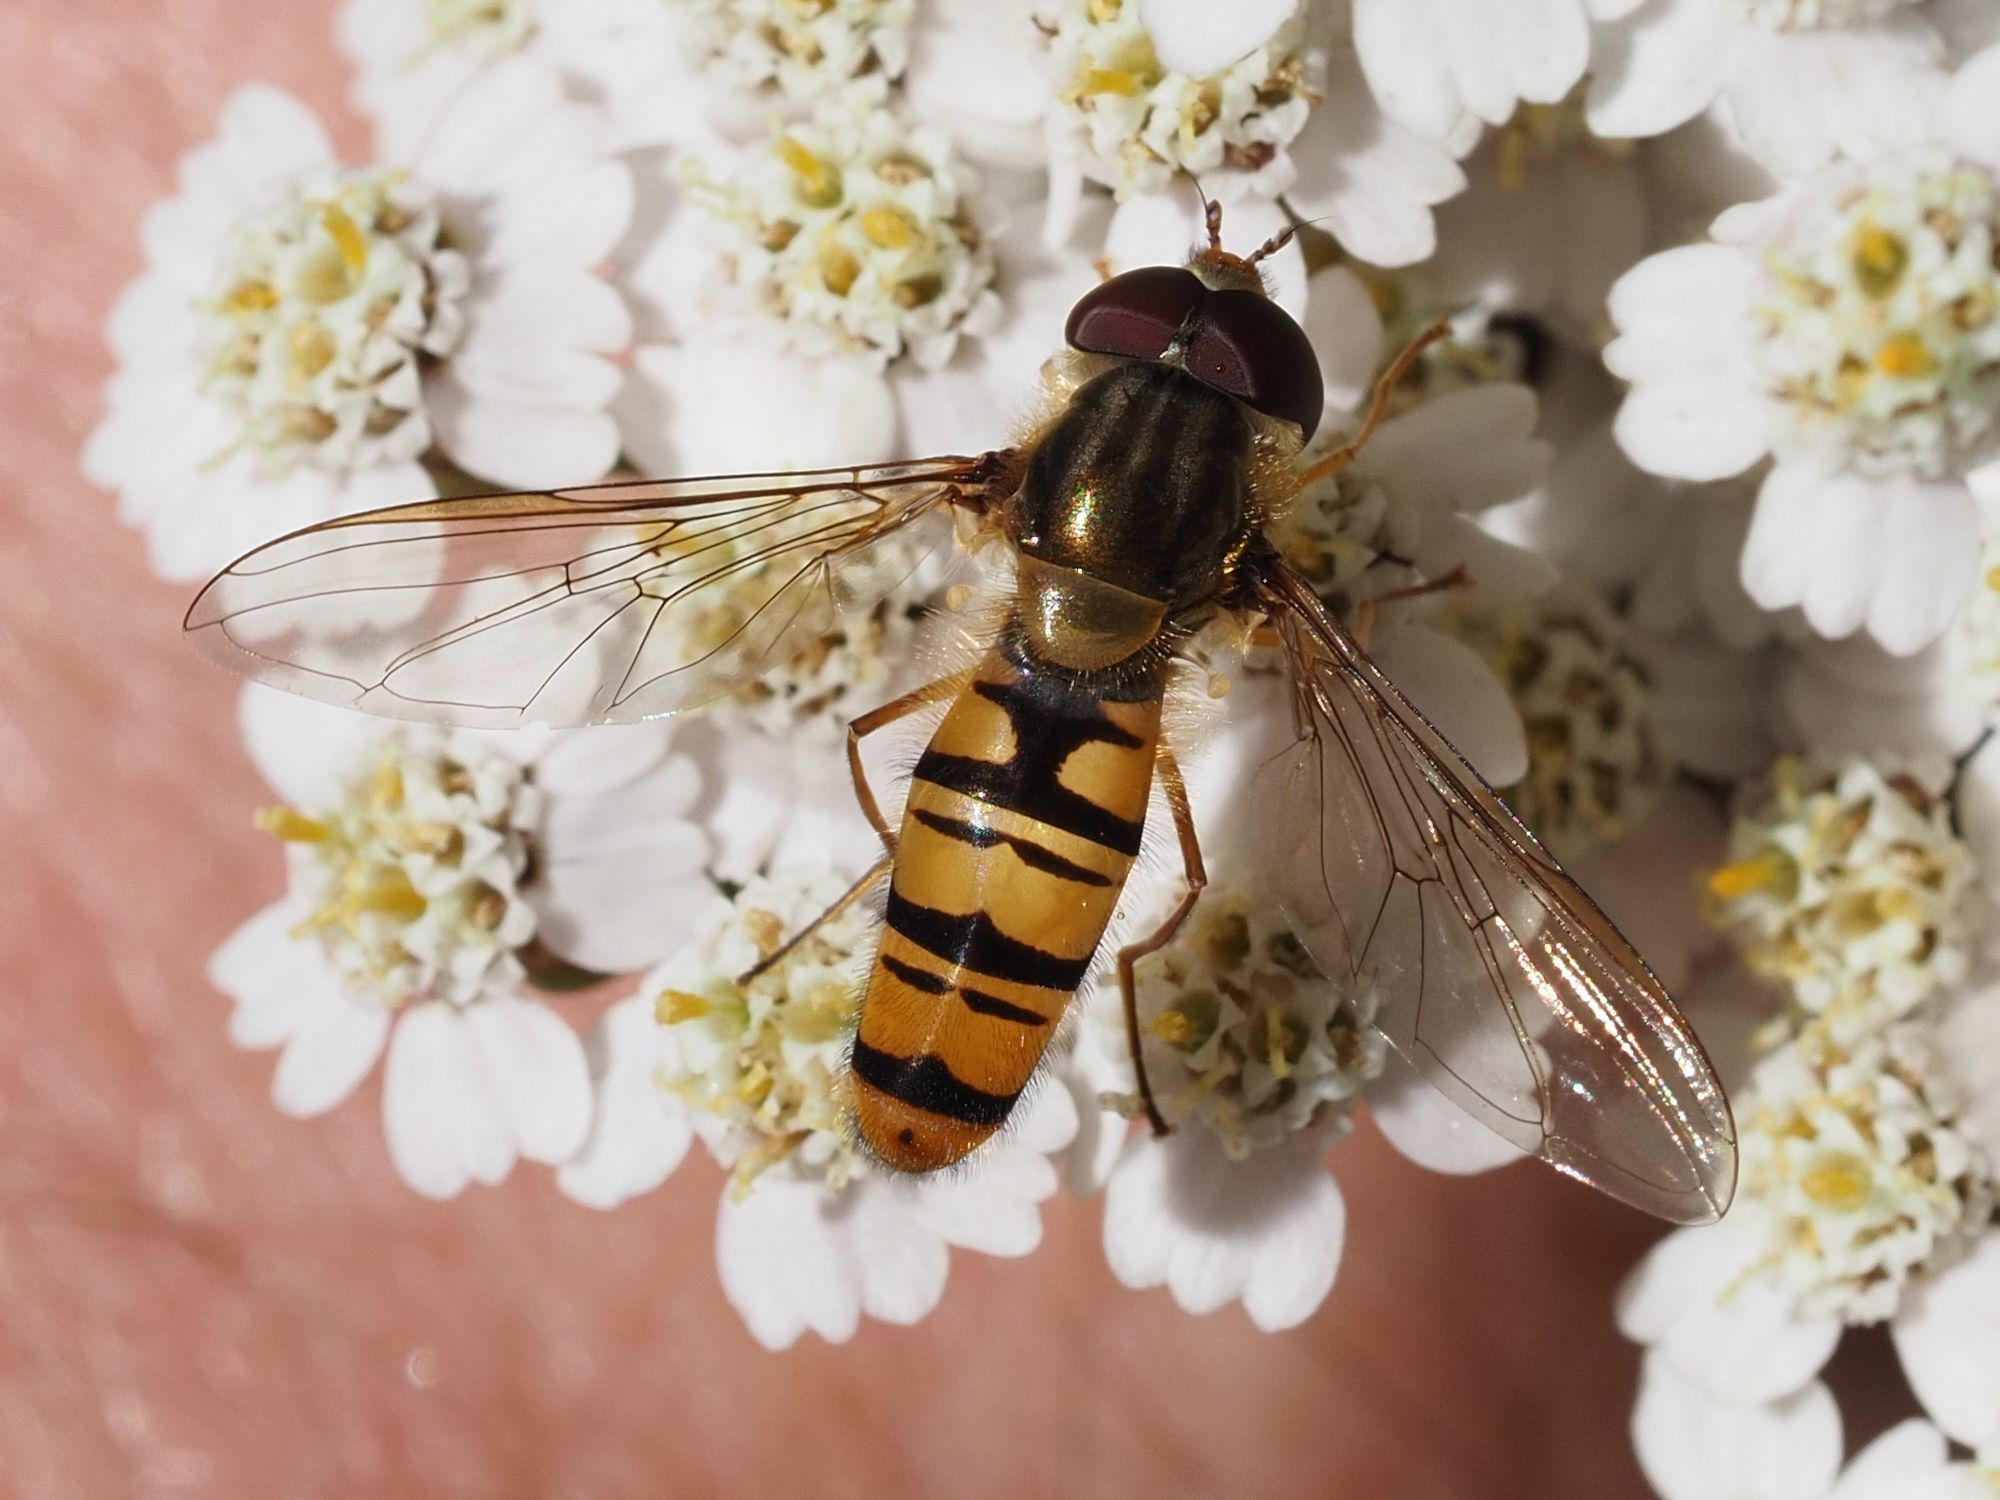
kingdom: Animalia
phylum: Arthropoda
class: Insecta
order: Diptera
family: Syrphidae
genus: Episyrphus
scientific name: Episyrphus balteatus
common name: Marmalade hoverfly
